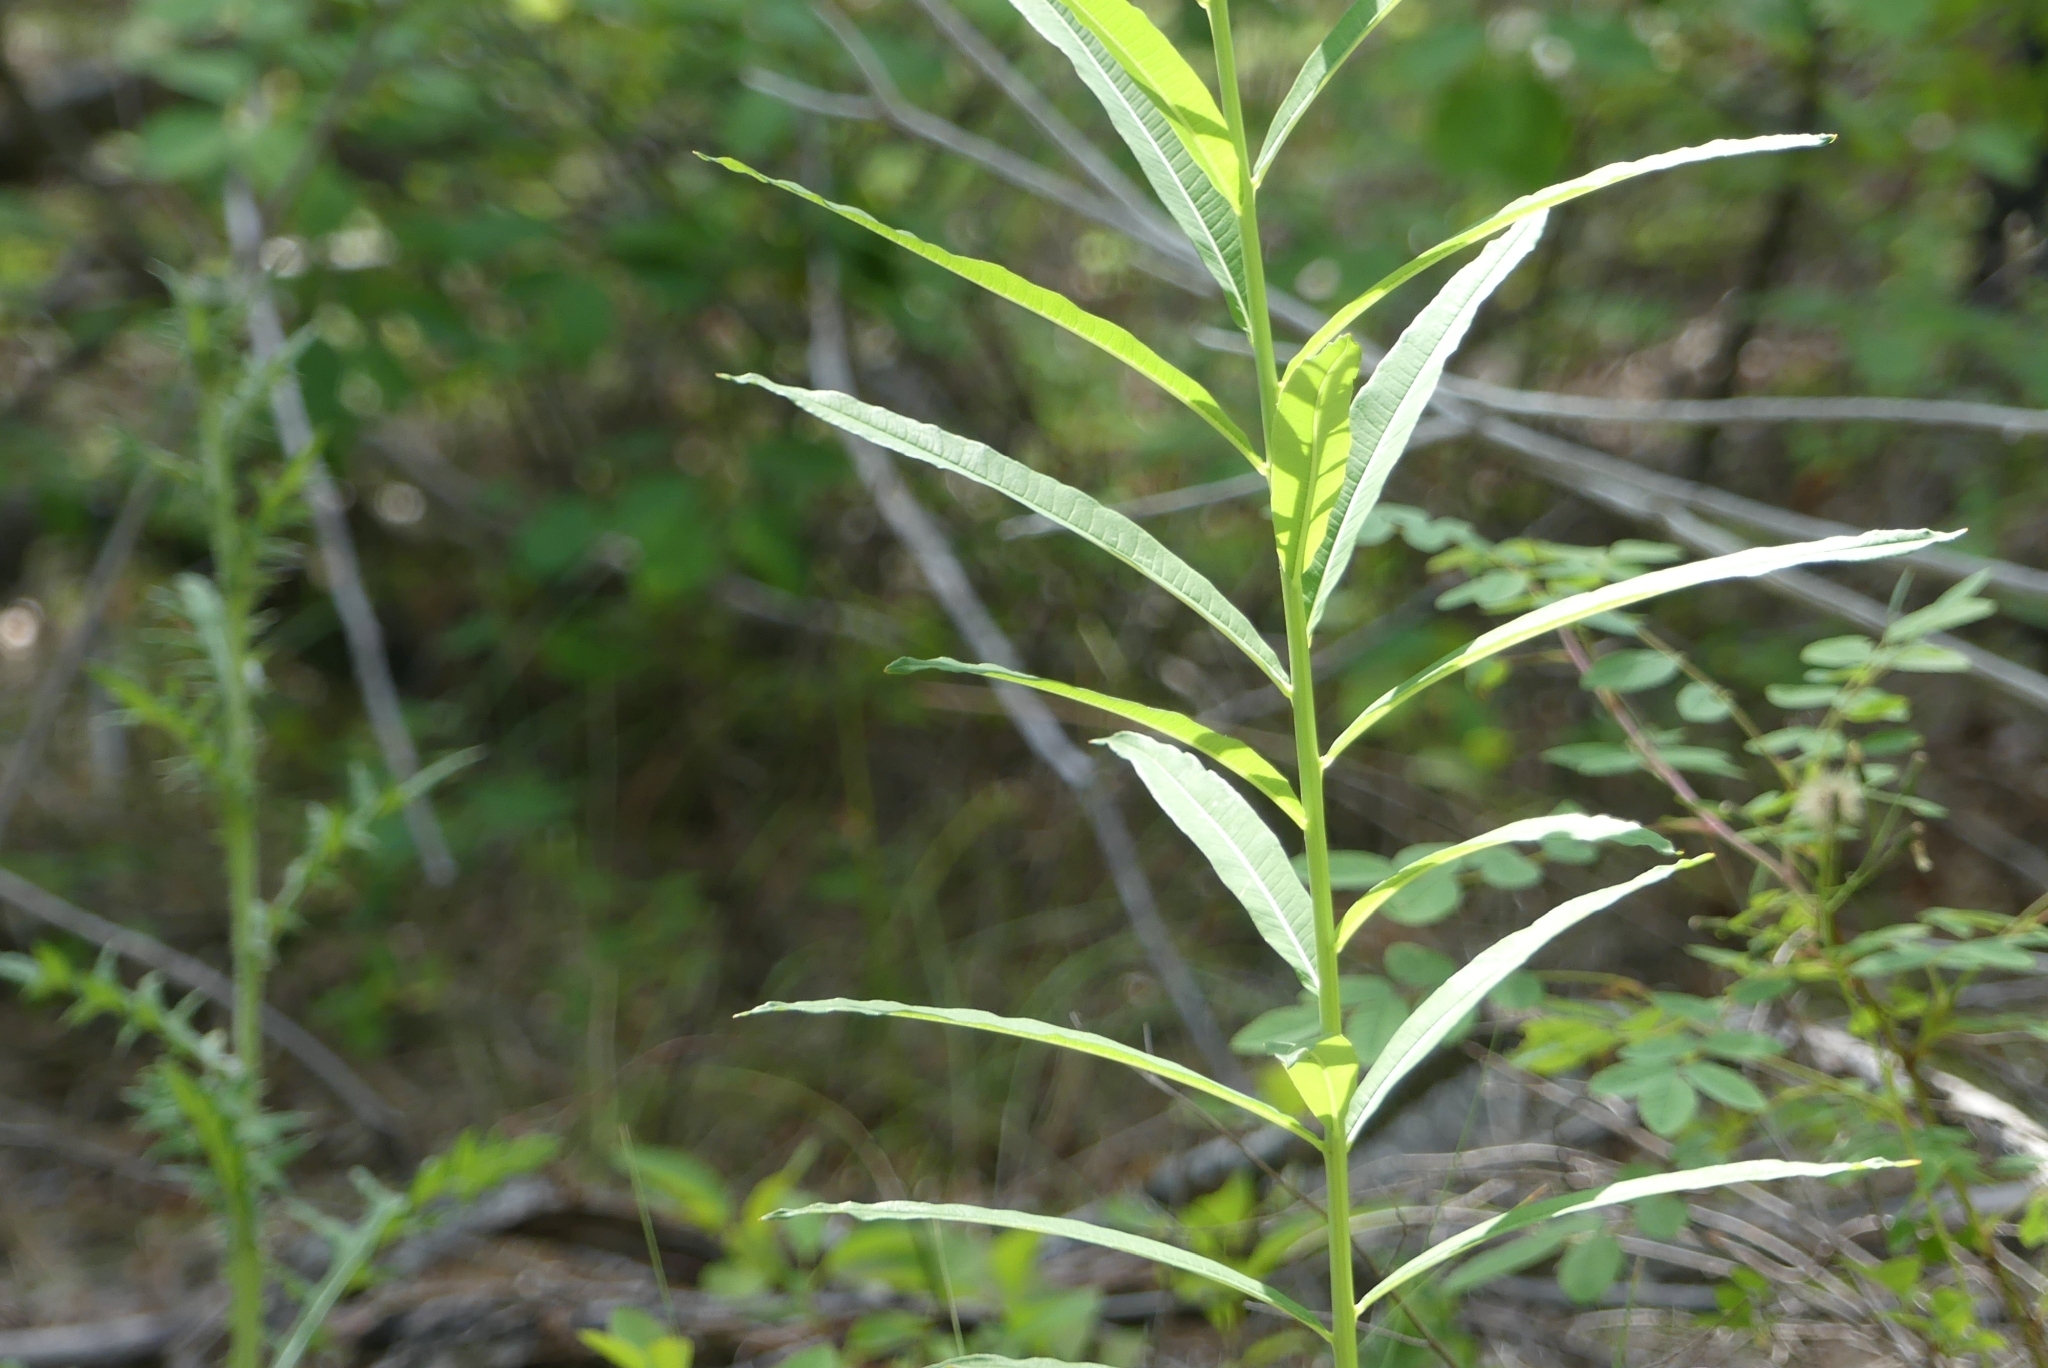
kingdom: Plantae
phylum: Tracheophyta
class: Magnoliopsida
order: Myrtales
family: Onagraceae
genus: Chamaenerion
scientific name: Chamaenerion angustifolium
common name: Fireweed
